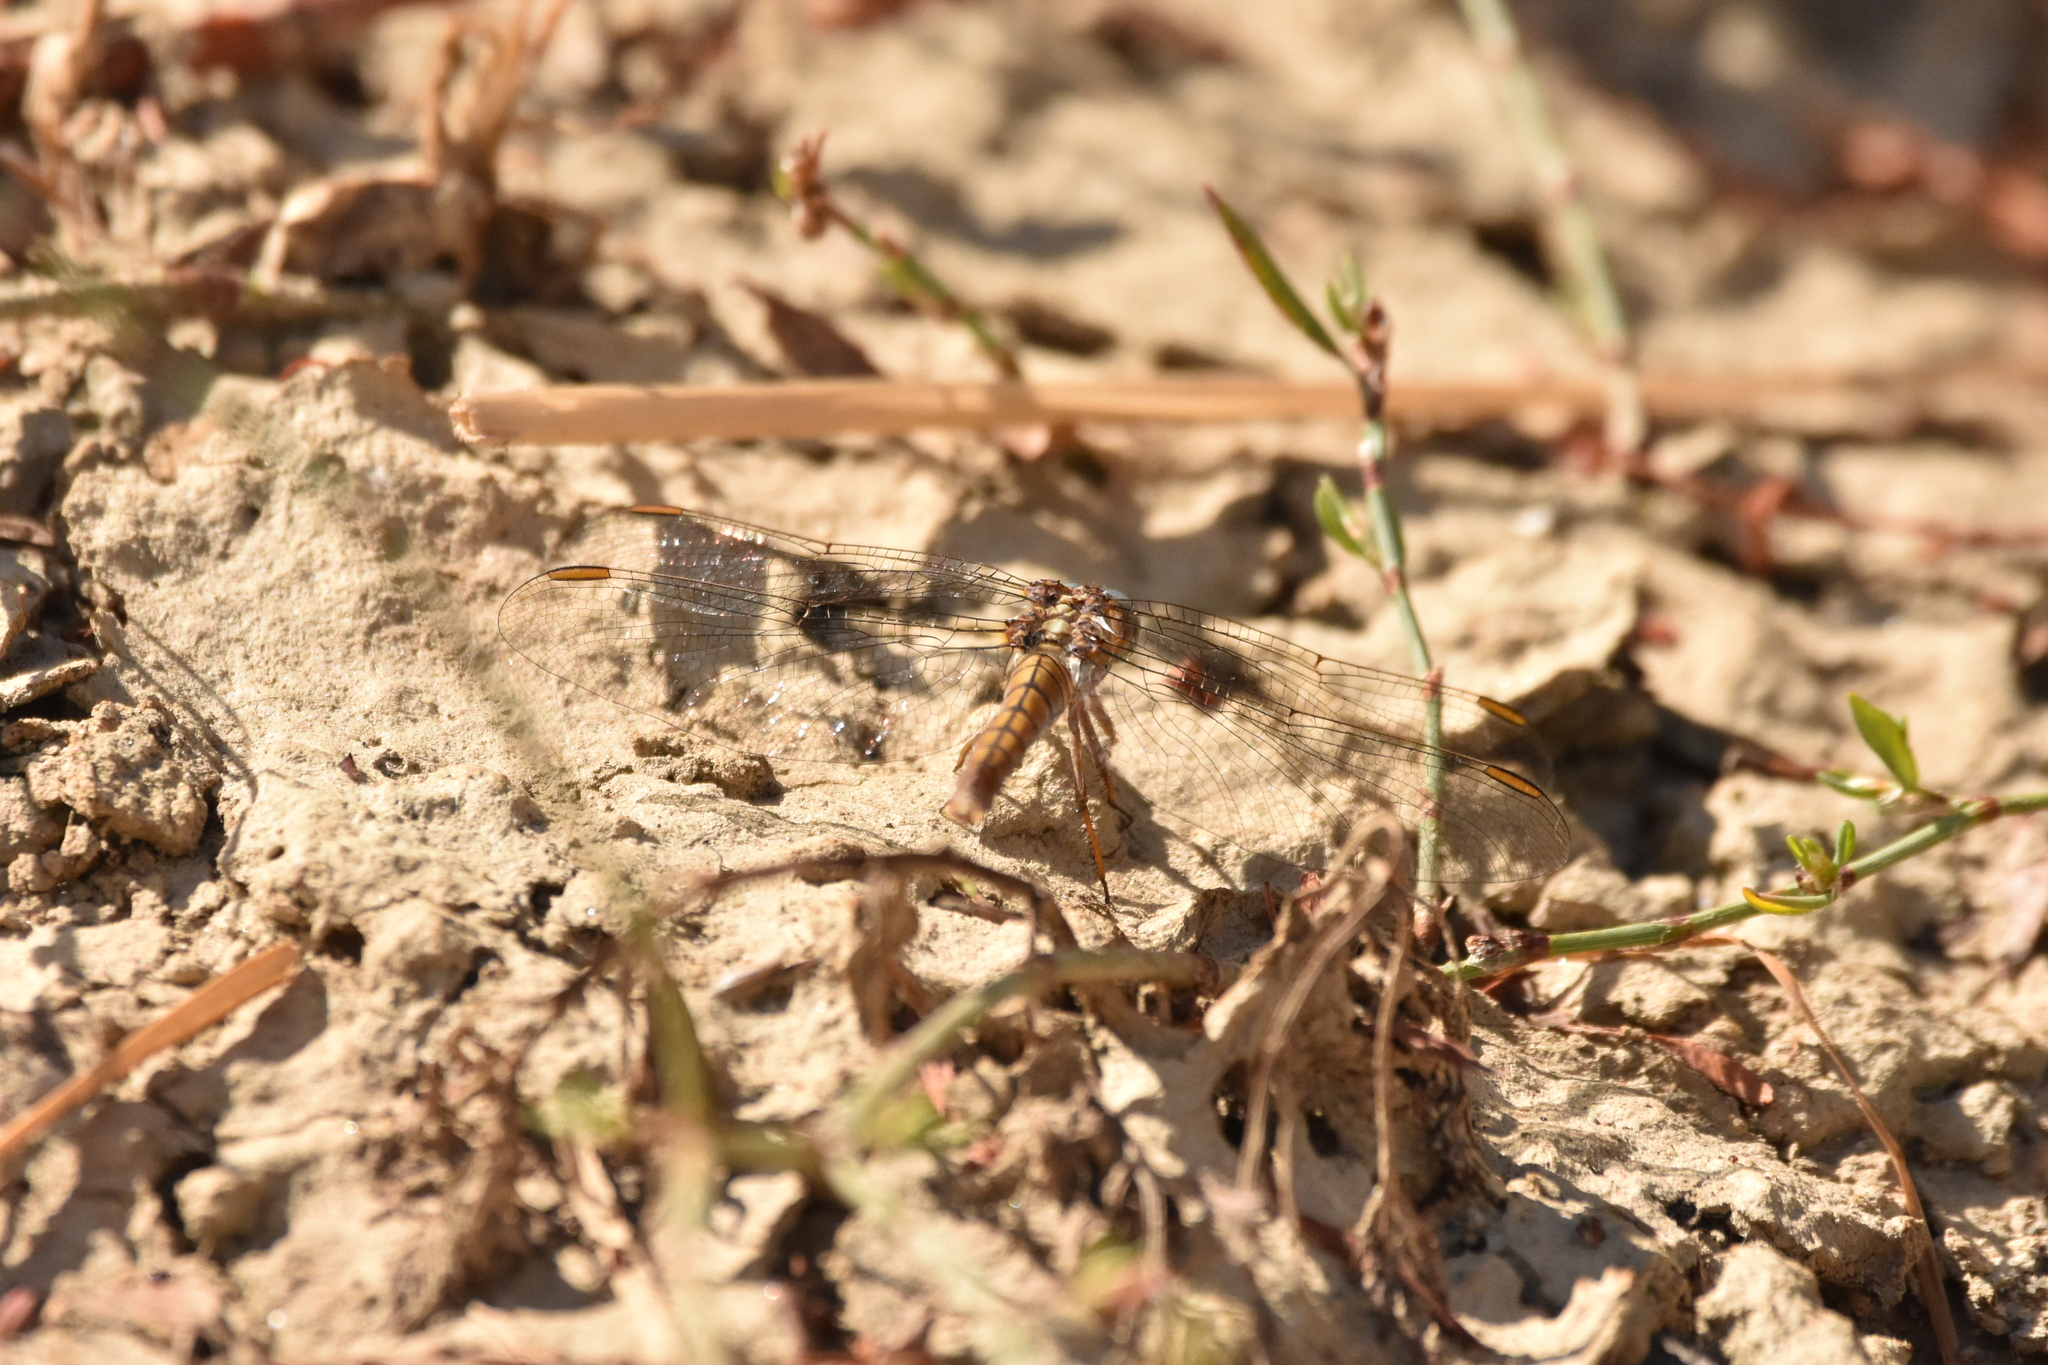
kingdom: Animalia
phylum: Arthropoda
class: Insecta
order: Odonata
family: Libellulidae
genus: Orthetrum
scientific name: Orthetrum coerulescens
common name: Keeled skimmer
